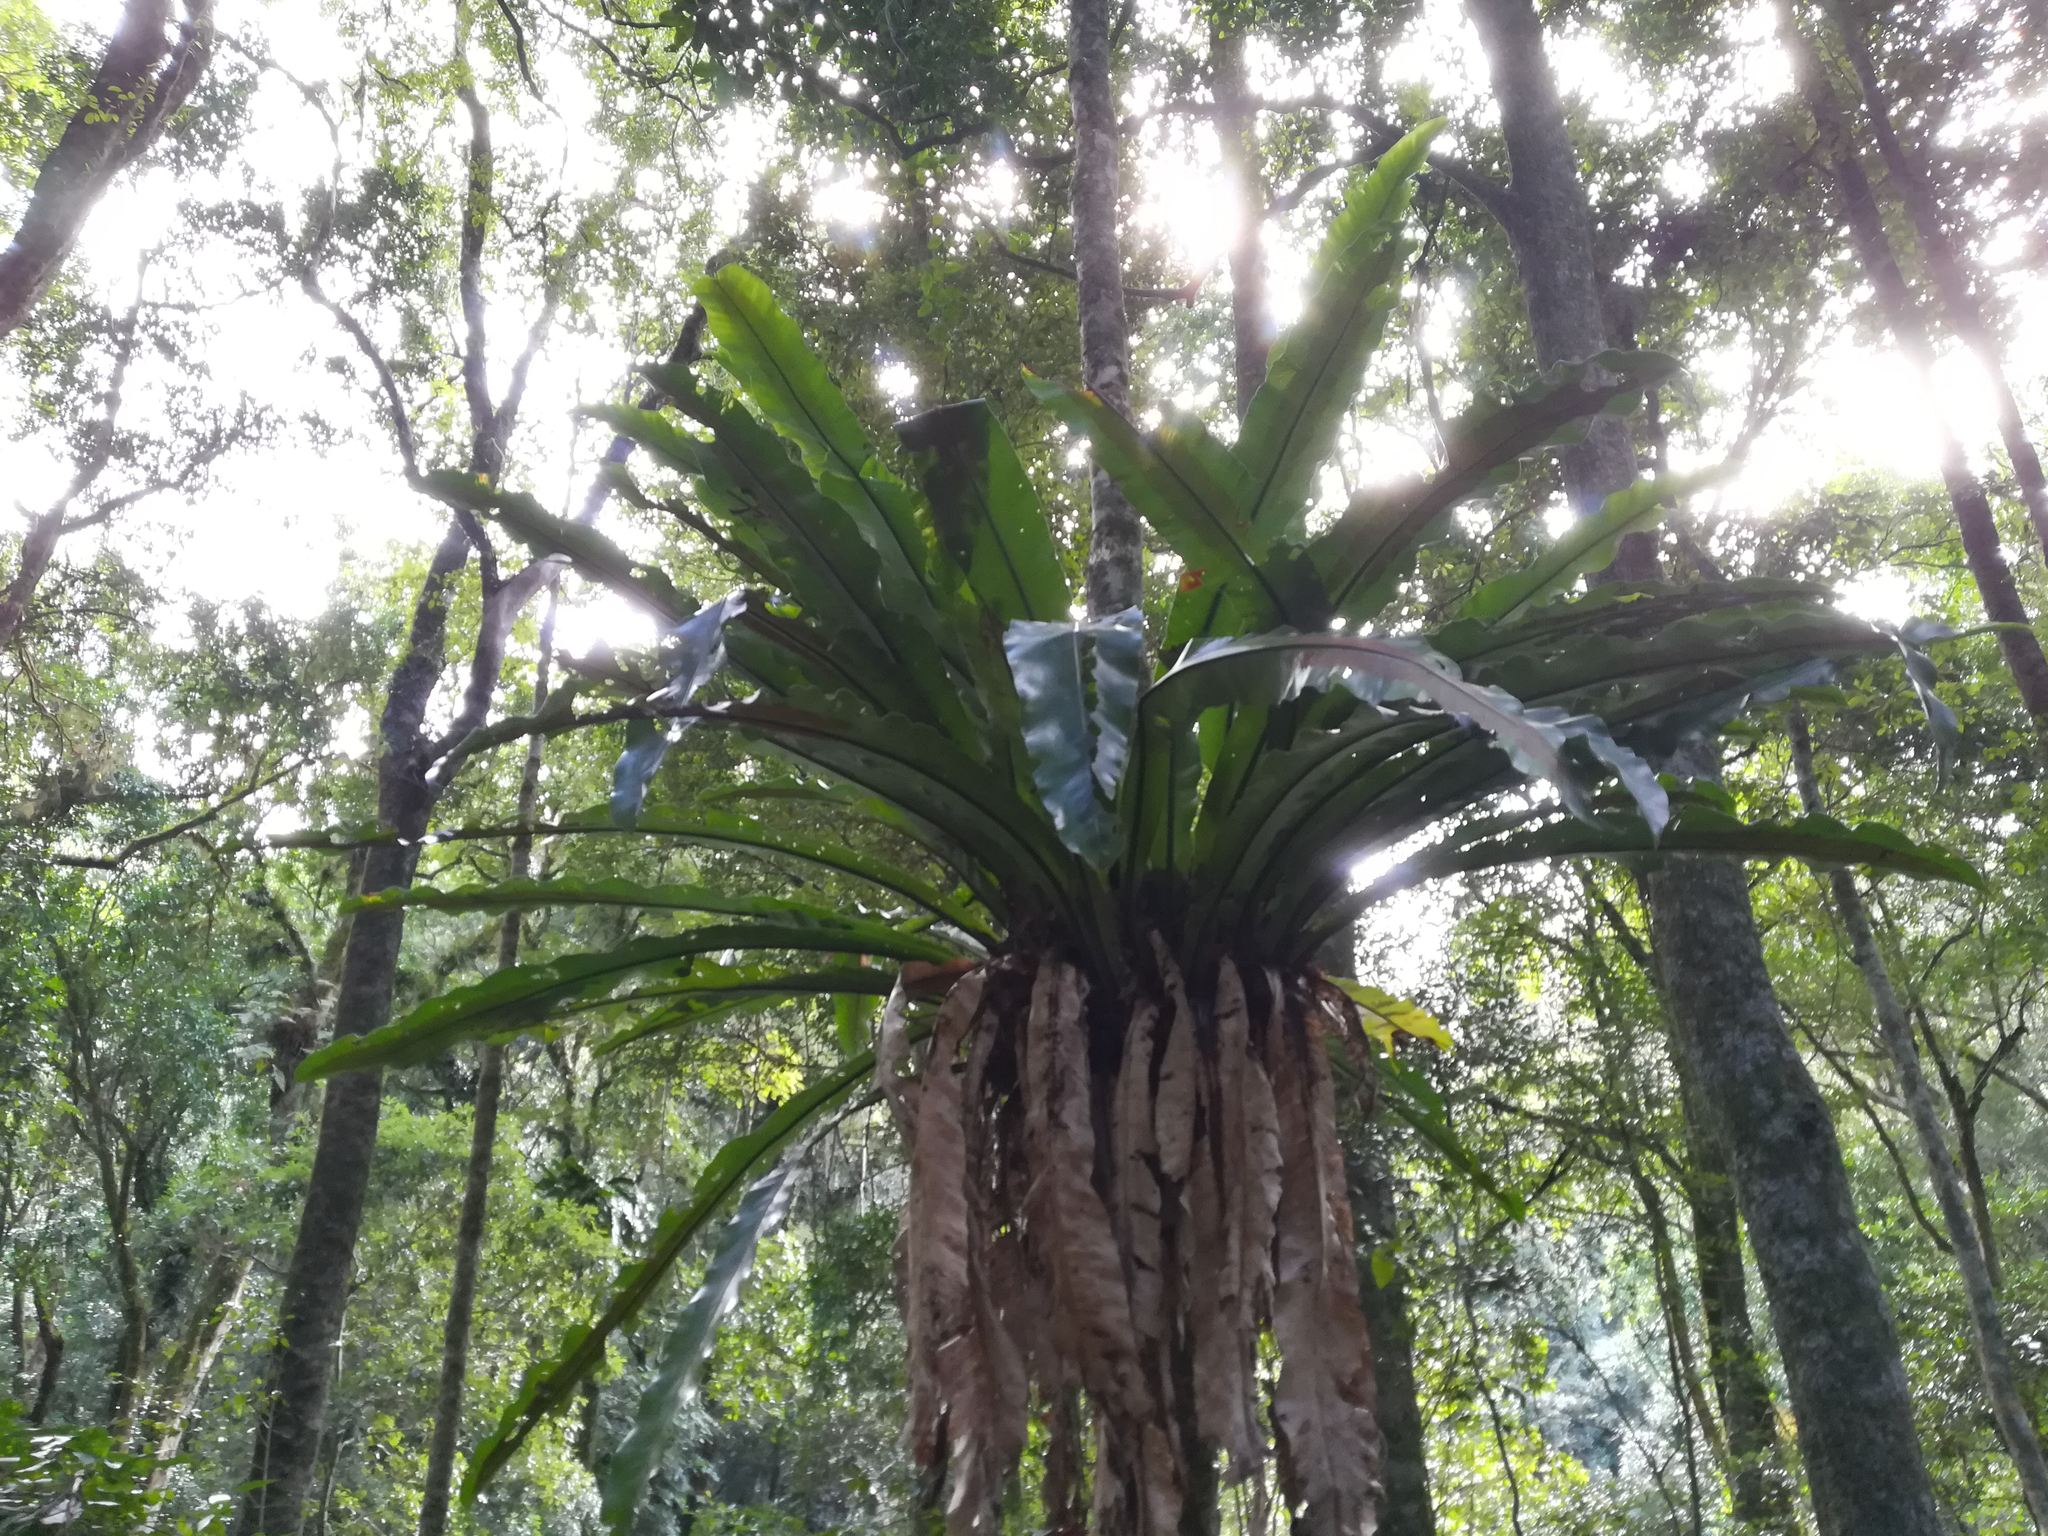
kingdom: Plantae
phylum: Tracheophyta
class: Polypodiopsida
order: Polypodiales
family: Aspleniaceae
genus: Asplenium
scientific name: Asplenium australasicum
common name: Bird's-nest fern
